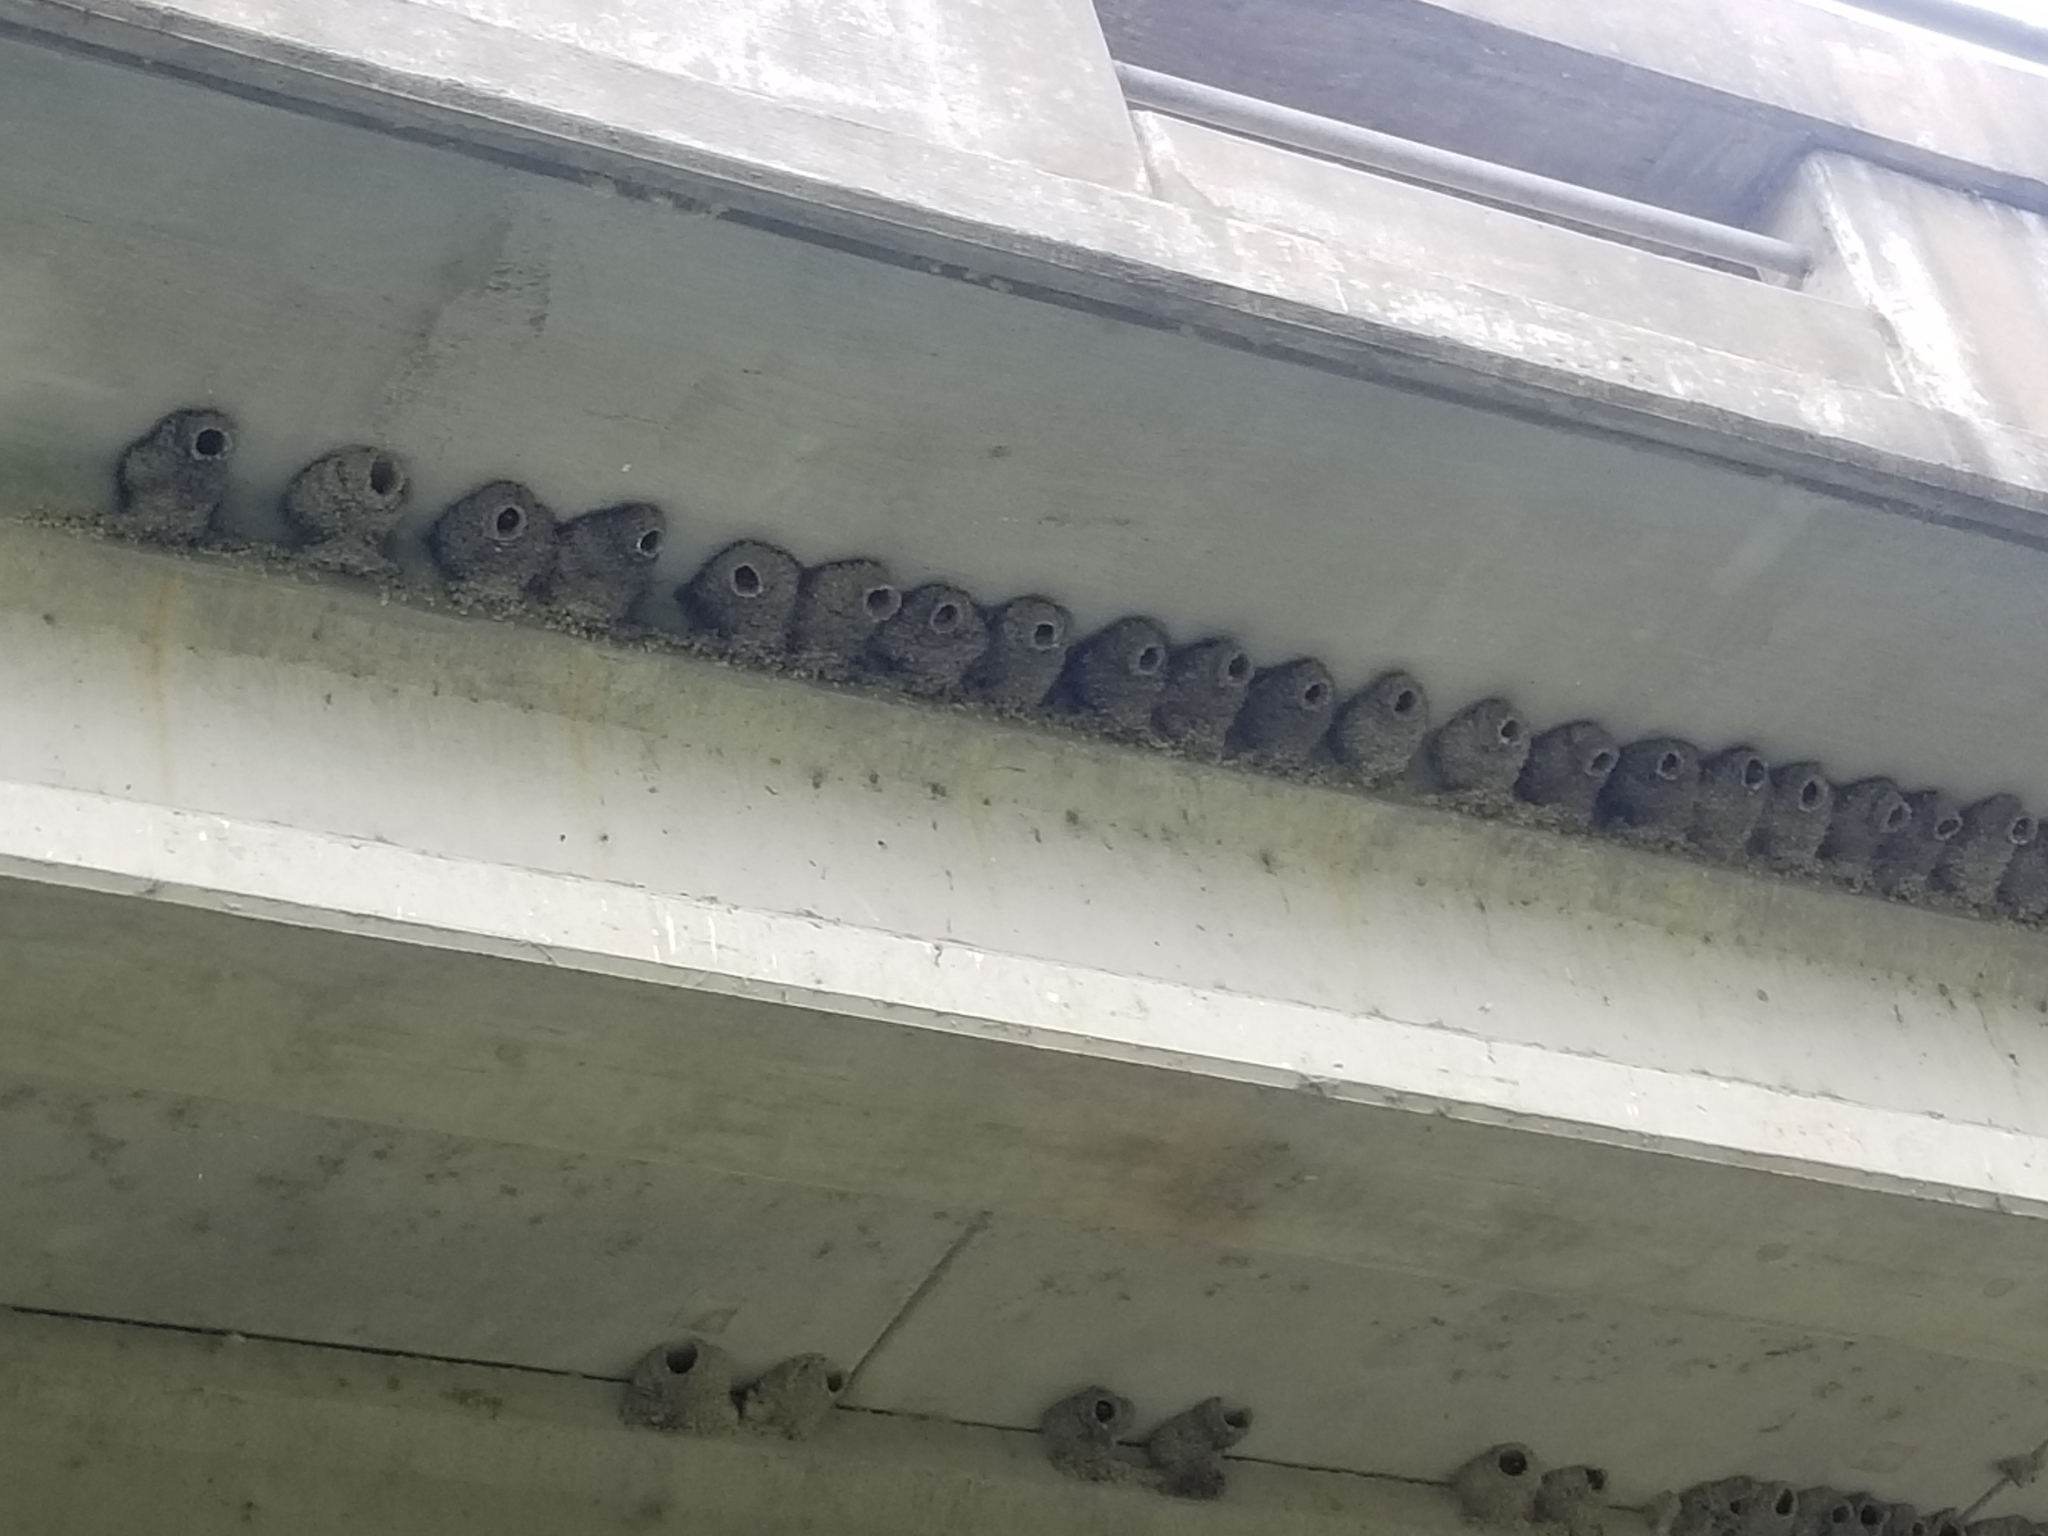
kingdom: Animalia
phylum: Chordata
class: Aves
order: Passeriformes
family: Hirundinidae
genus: Petrochelidon
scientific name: Petrochelidon pyrrhonota
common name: American cliff swallow
